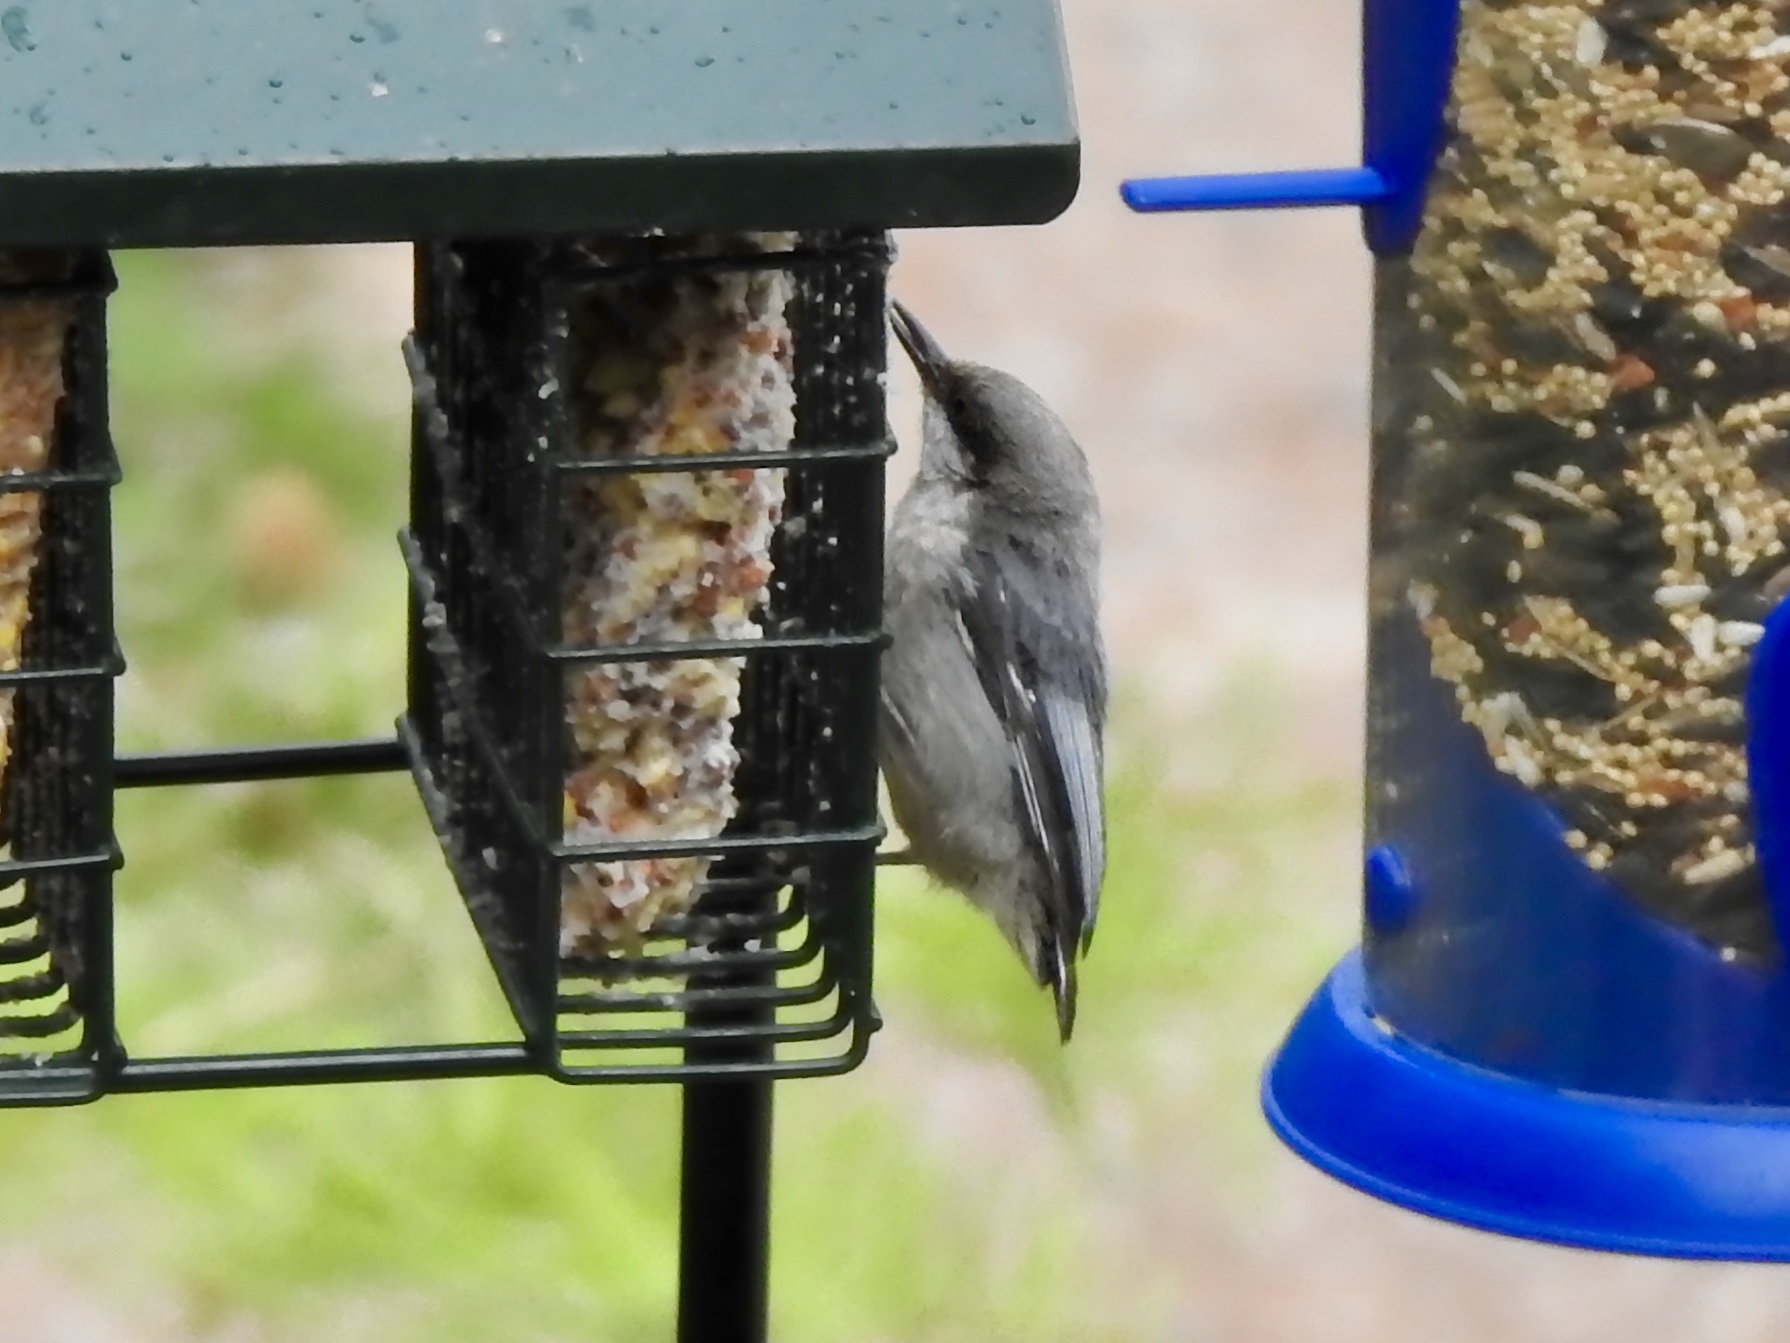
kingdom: Animalia
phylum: Chordata
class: Aves
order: Passeriformes
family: Sittidae
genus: Sitta
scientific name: Sitta pygmaea
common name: Pygmy nuthatch
